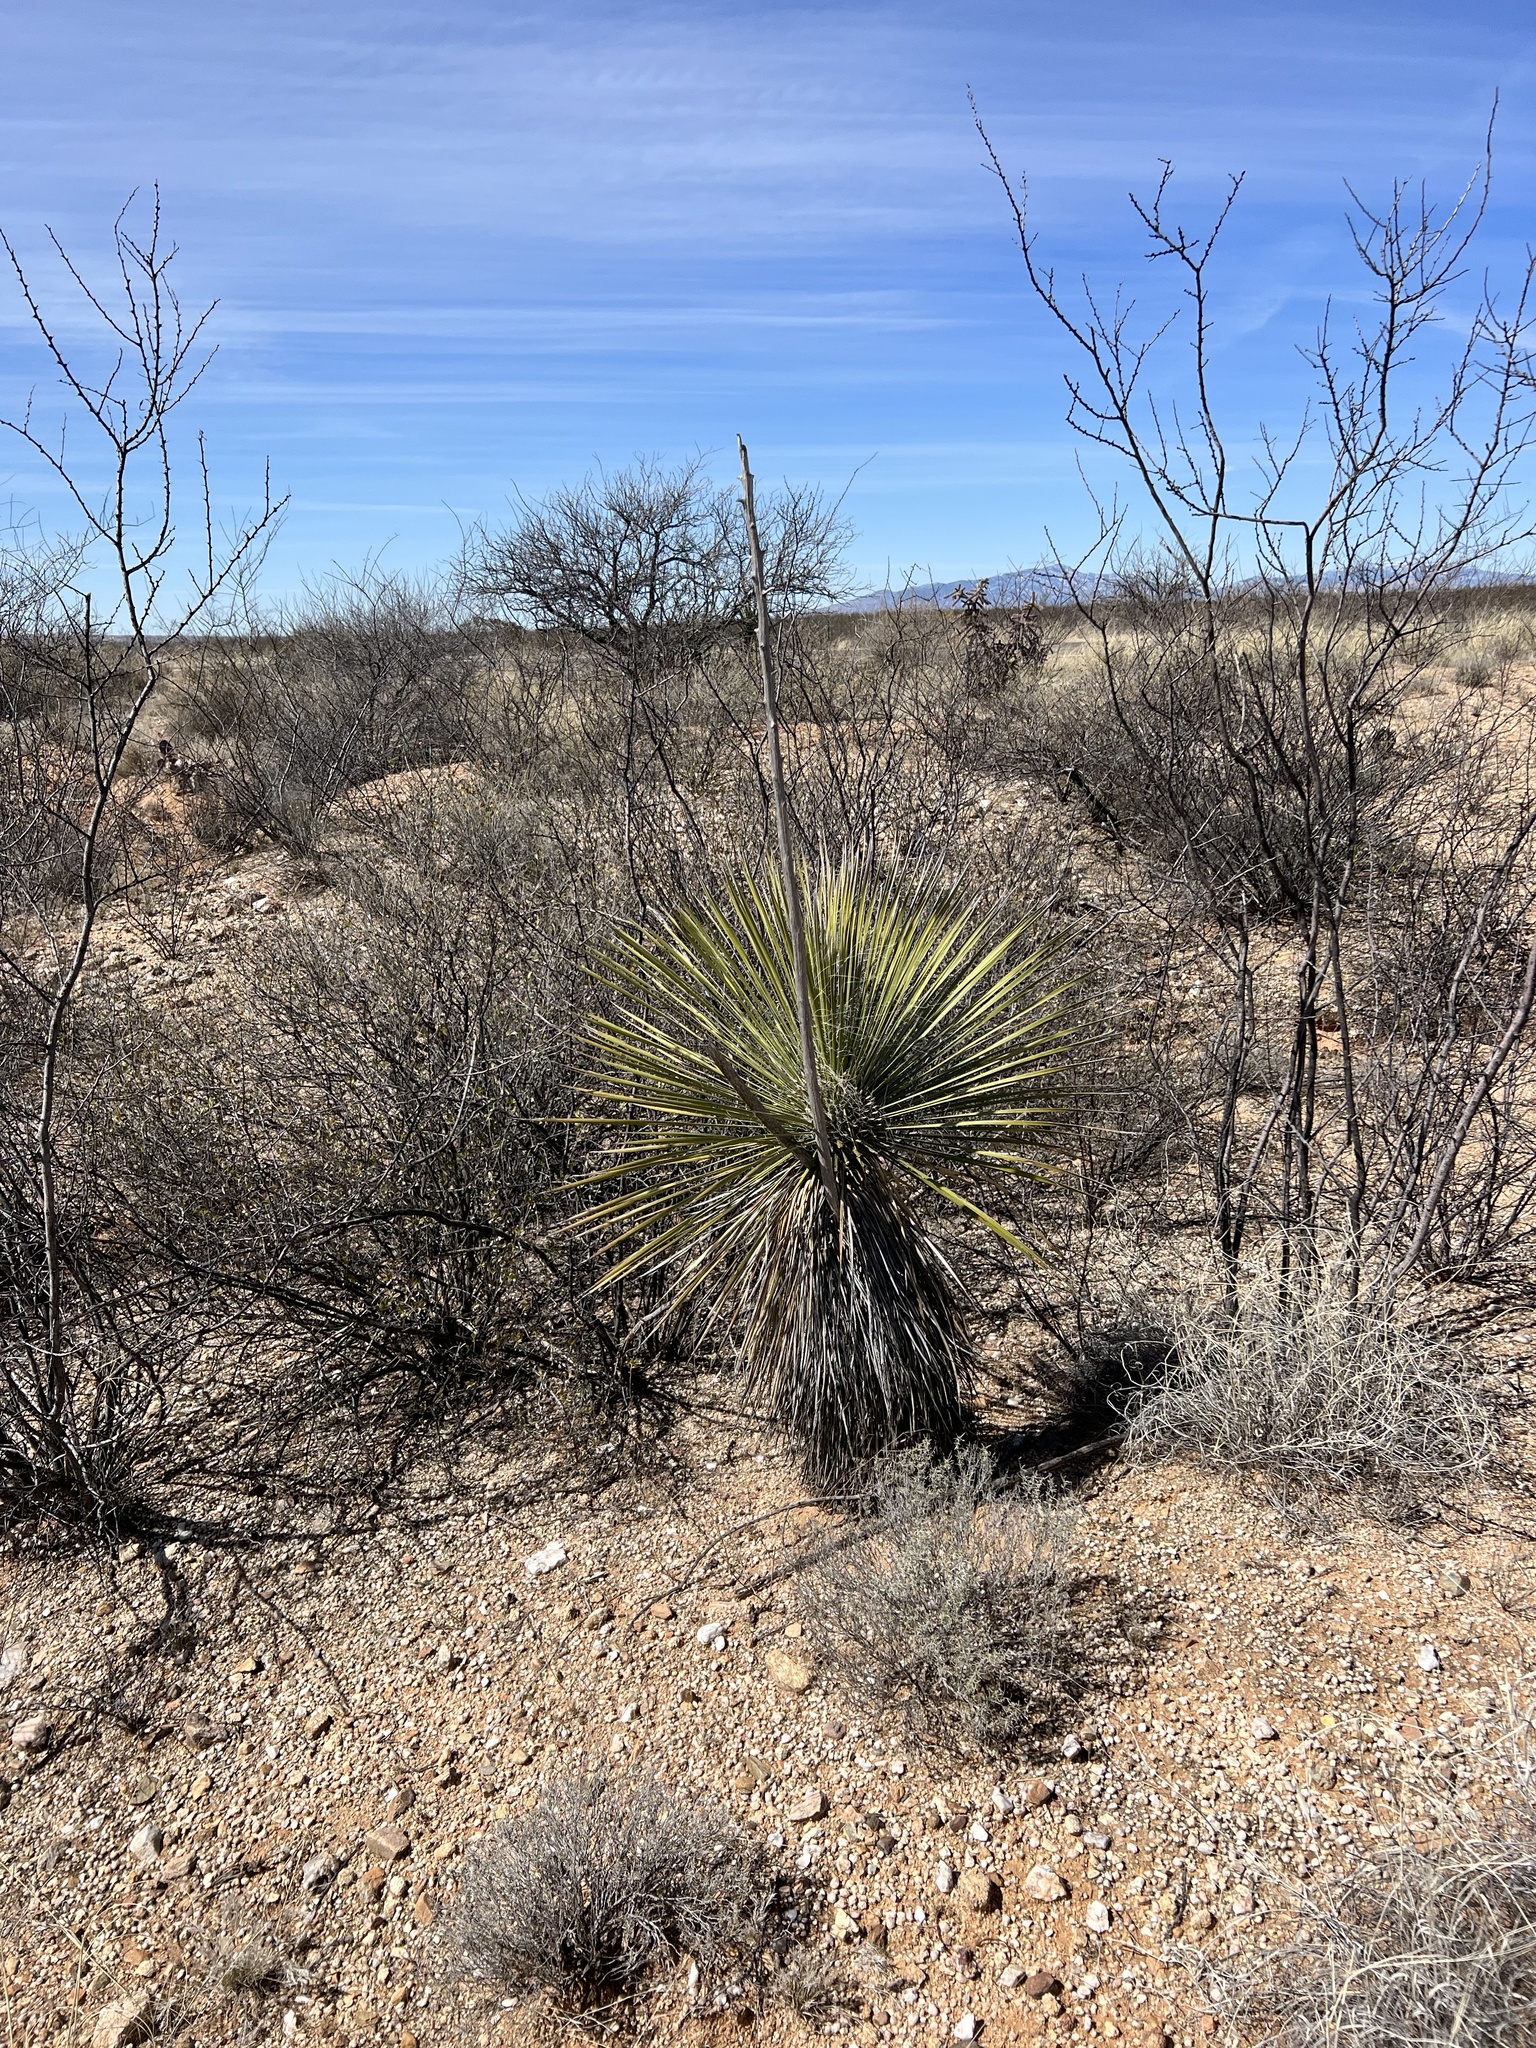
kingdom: Plantae
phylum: Tracheophyta
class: Liliopsida
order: Asparagales
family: Asparagaceae
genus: Yucca
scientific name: Yucca elata
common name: Palmella
